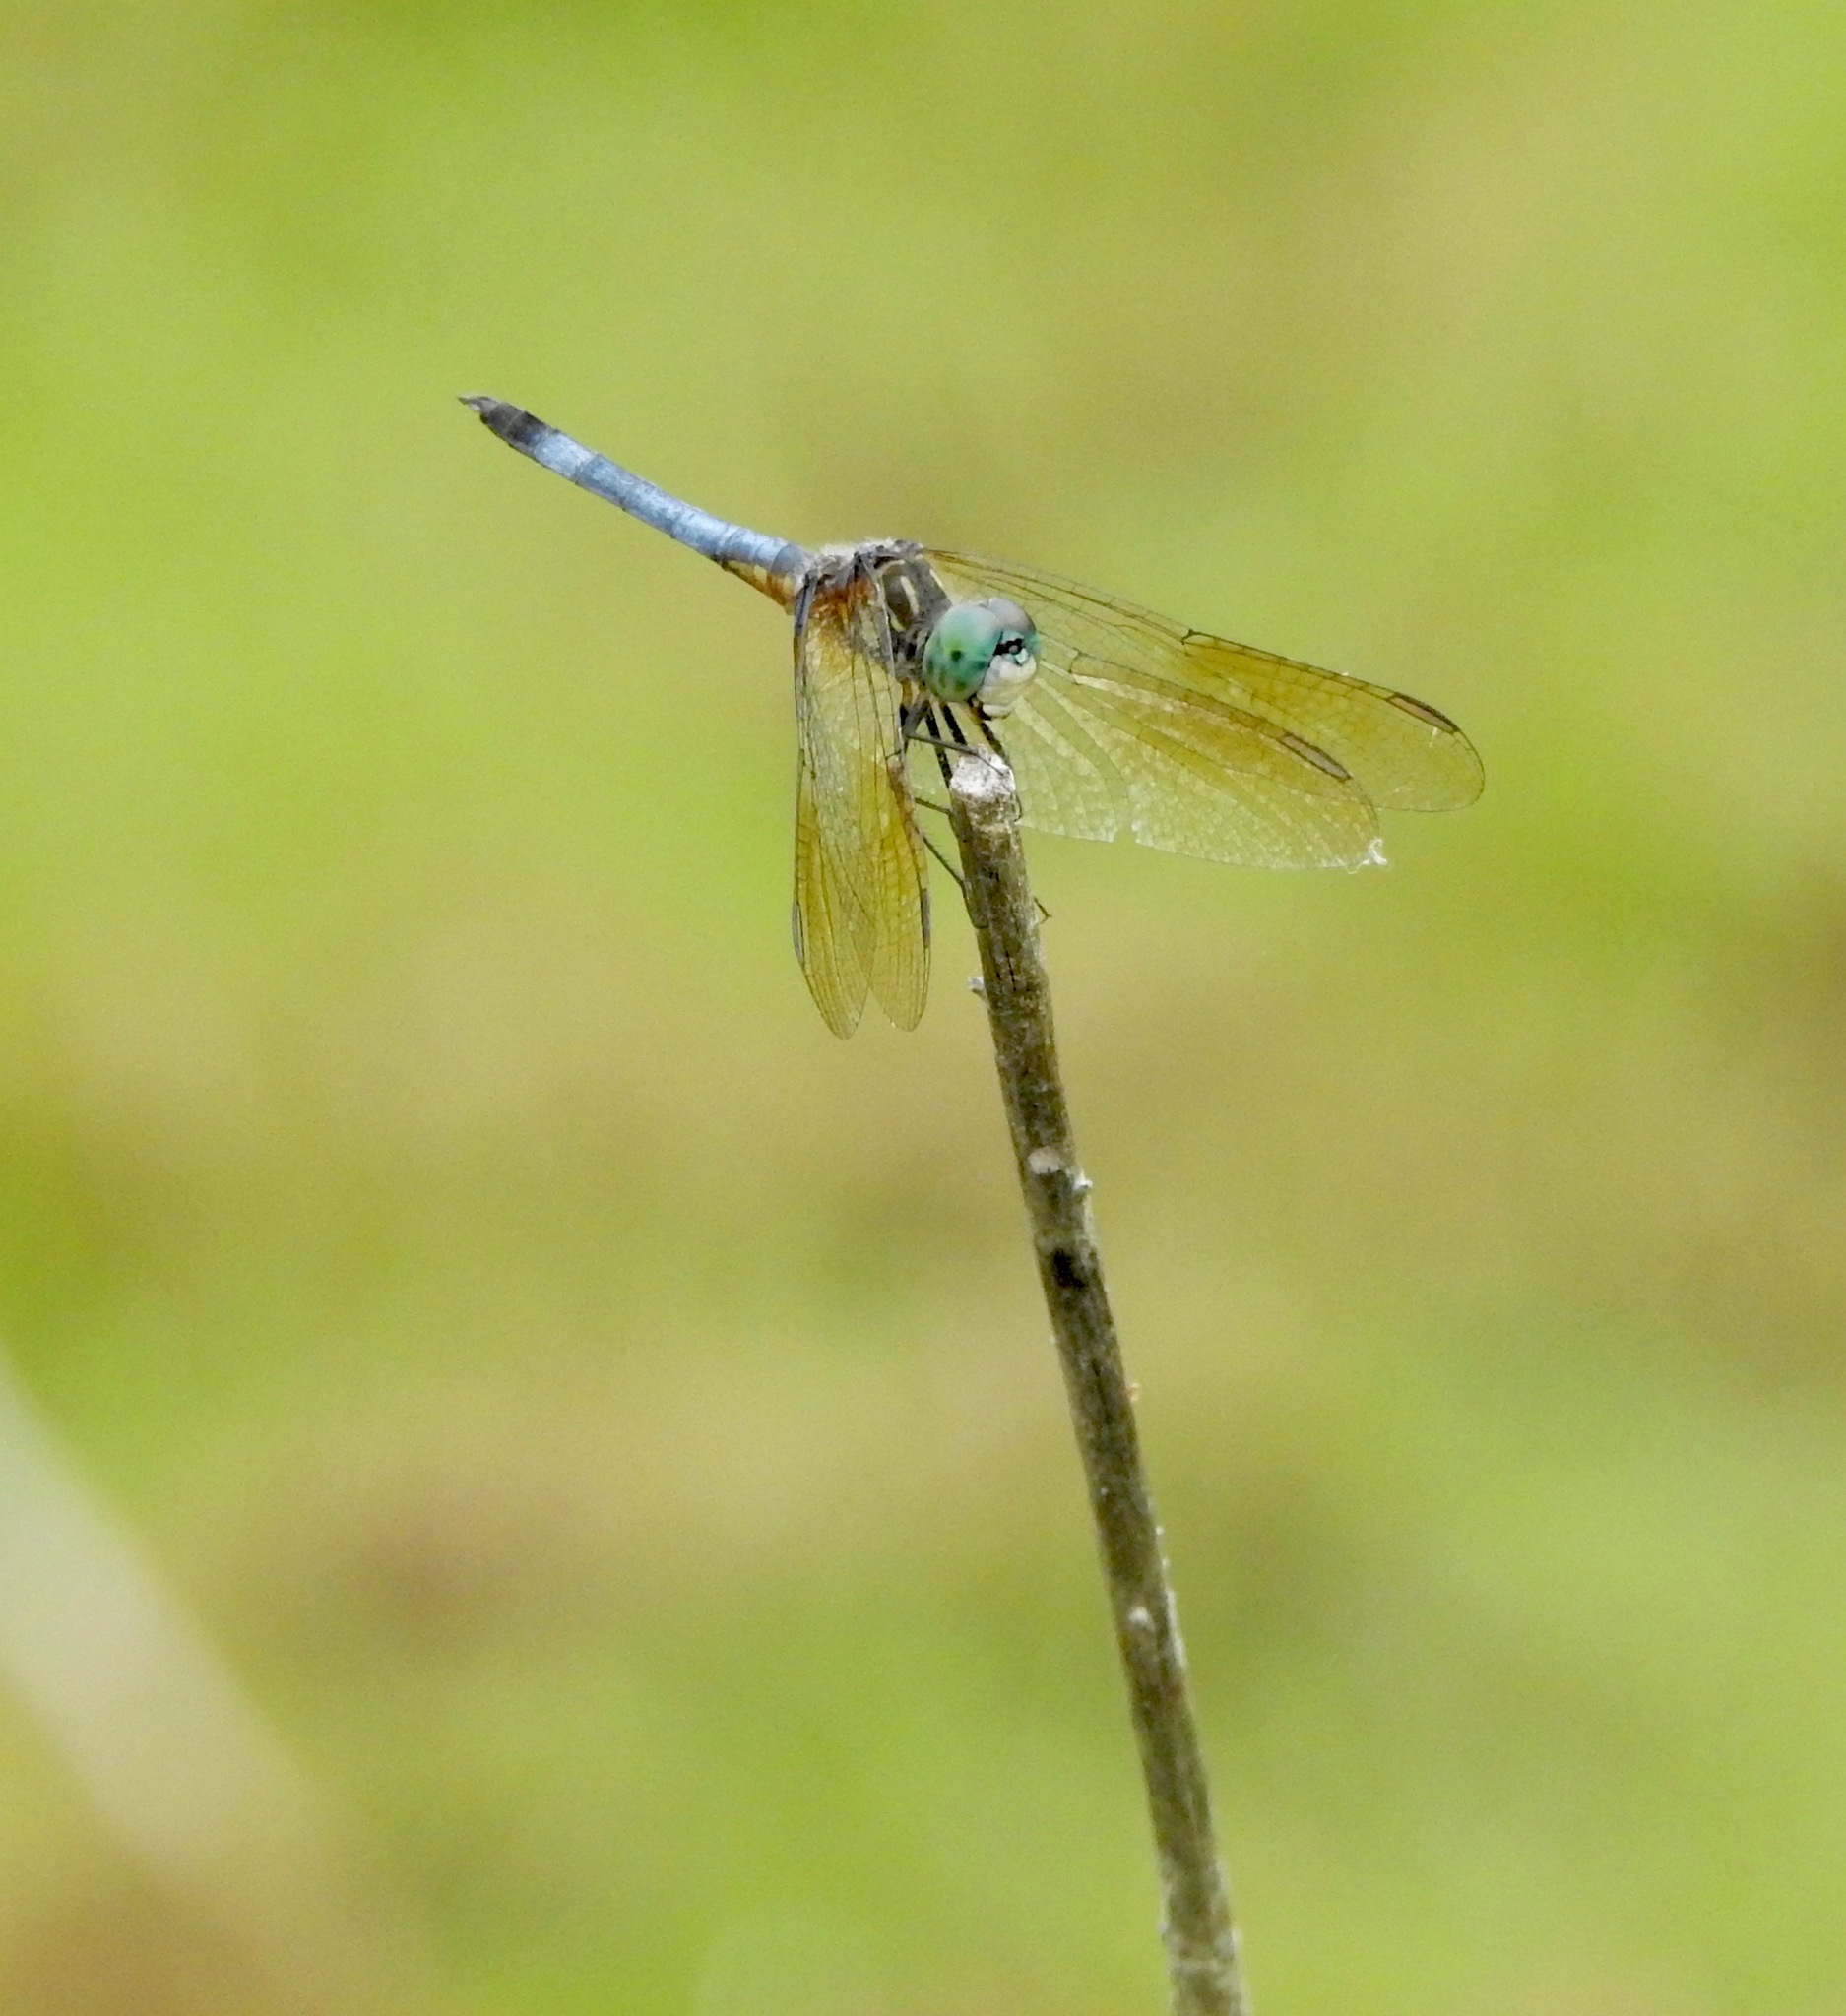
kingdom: Animalia
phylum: Arthropoda
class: Insecta
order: Odonata
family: Libellulidae
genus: Pachydiplax
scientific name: Pachydiplax longipennis
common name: Blue dasher
